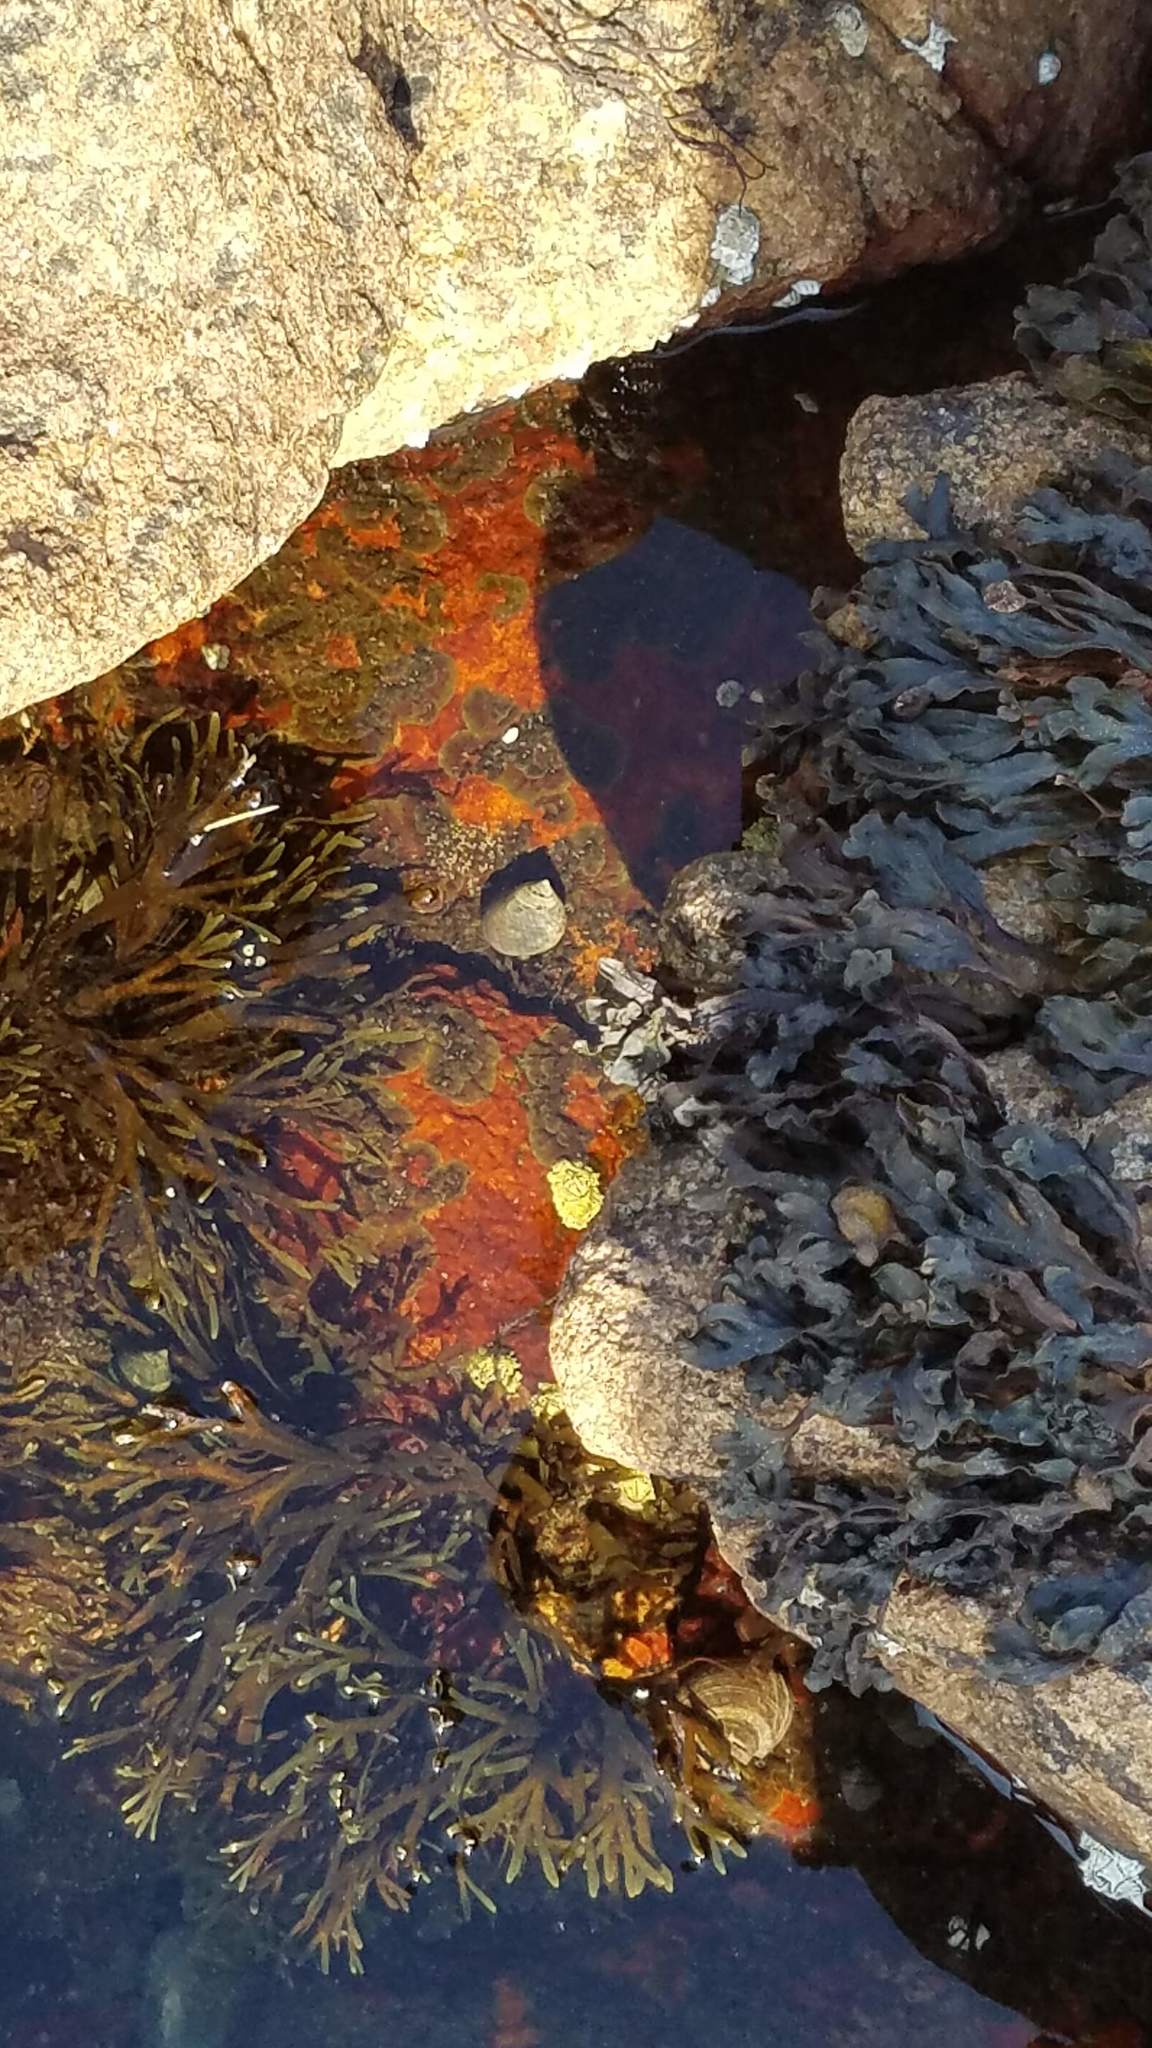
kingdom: Chromista
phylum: Ochrophyta
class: Phaeophyceae
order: Fucales
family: Fucaceae
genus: Fucus
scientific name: Fucus
